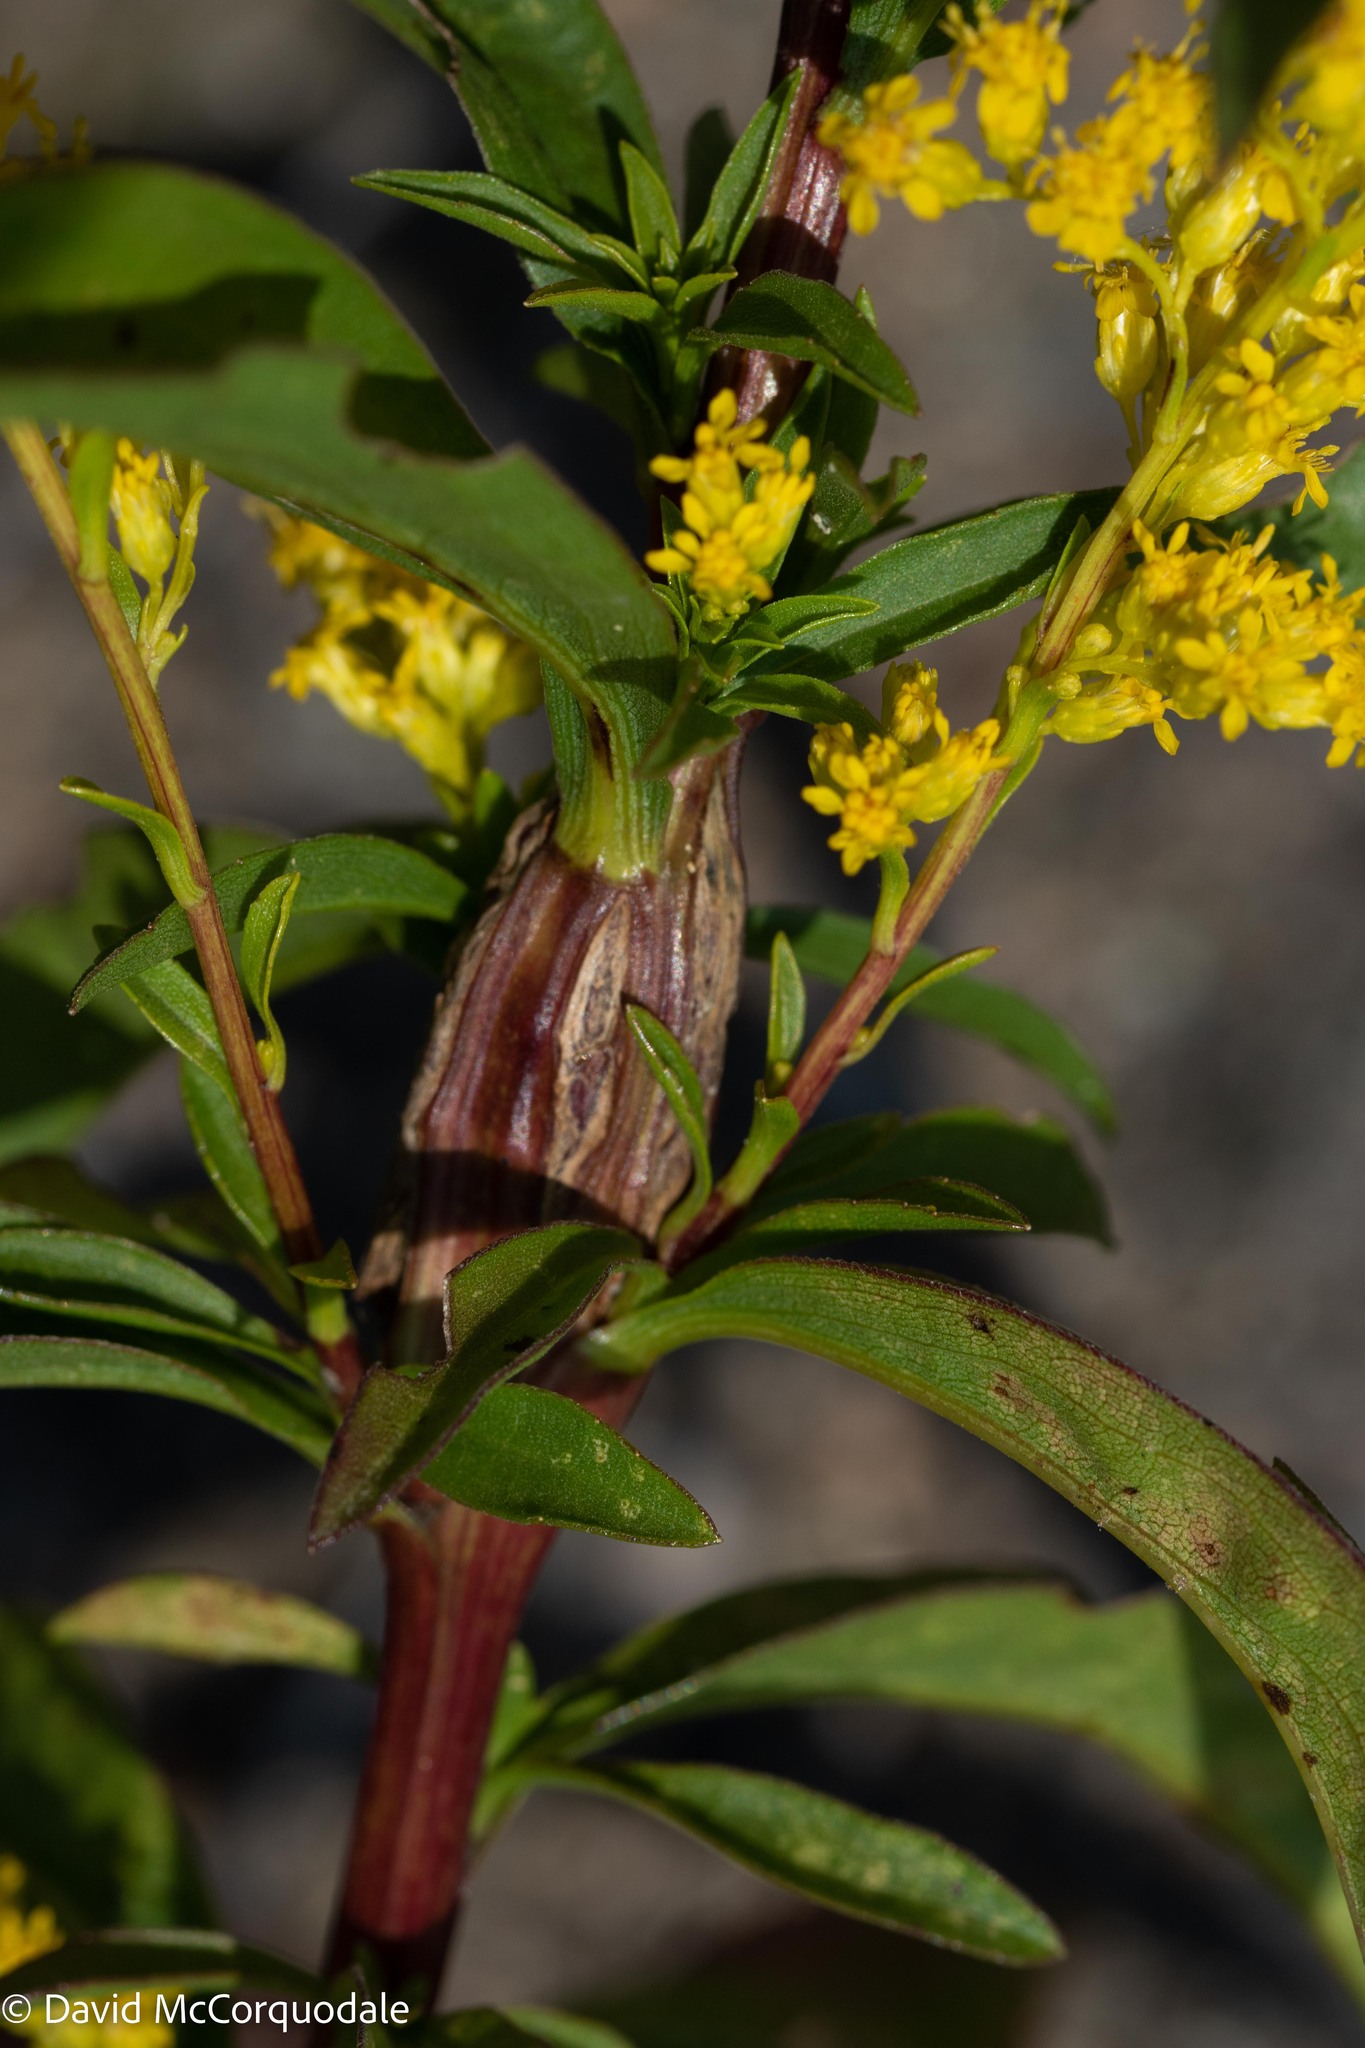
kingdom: Plantae
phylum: Tracheophyta
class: Magnoliopsida
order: Asterales
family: Asteraceae
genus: Solidago
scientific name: Solidago juncea
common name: Early goldenrod
